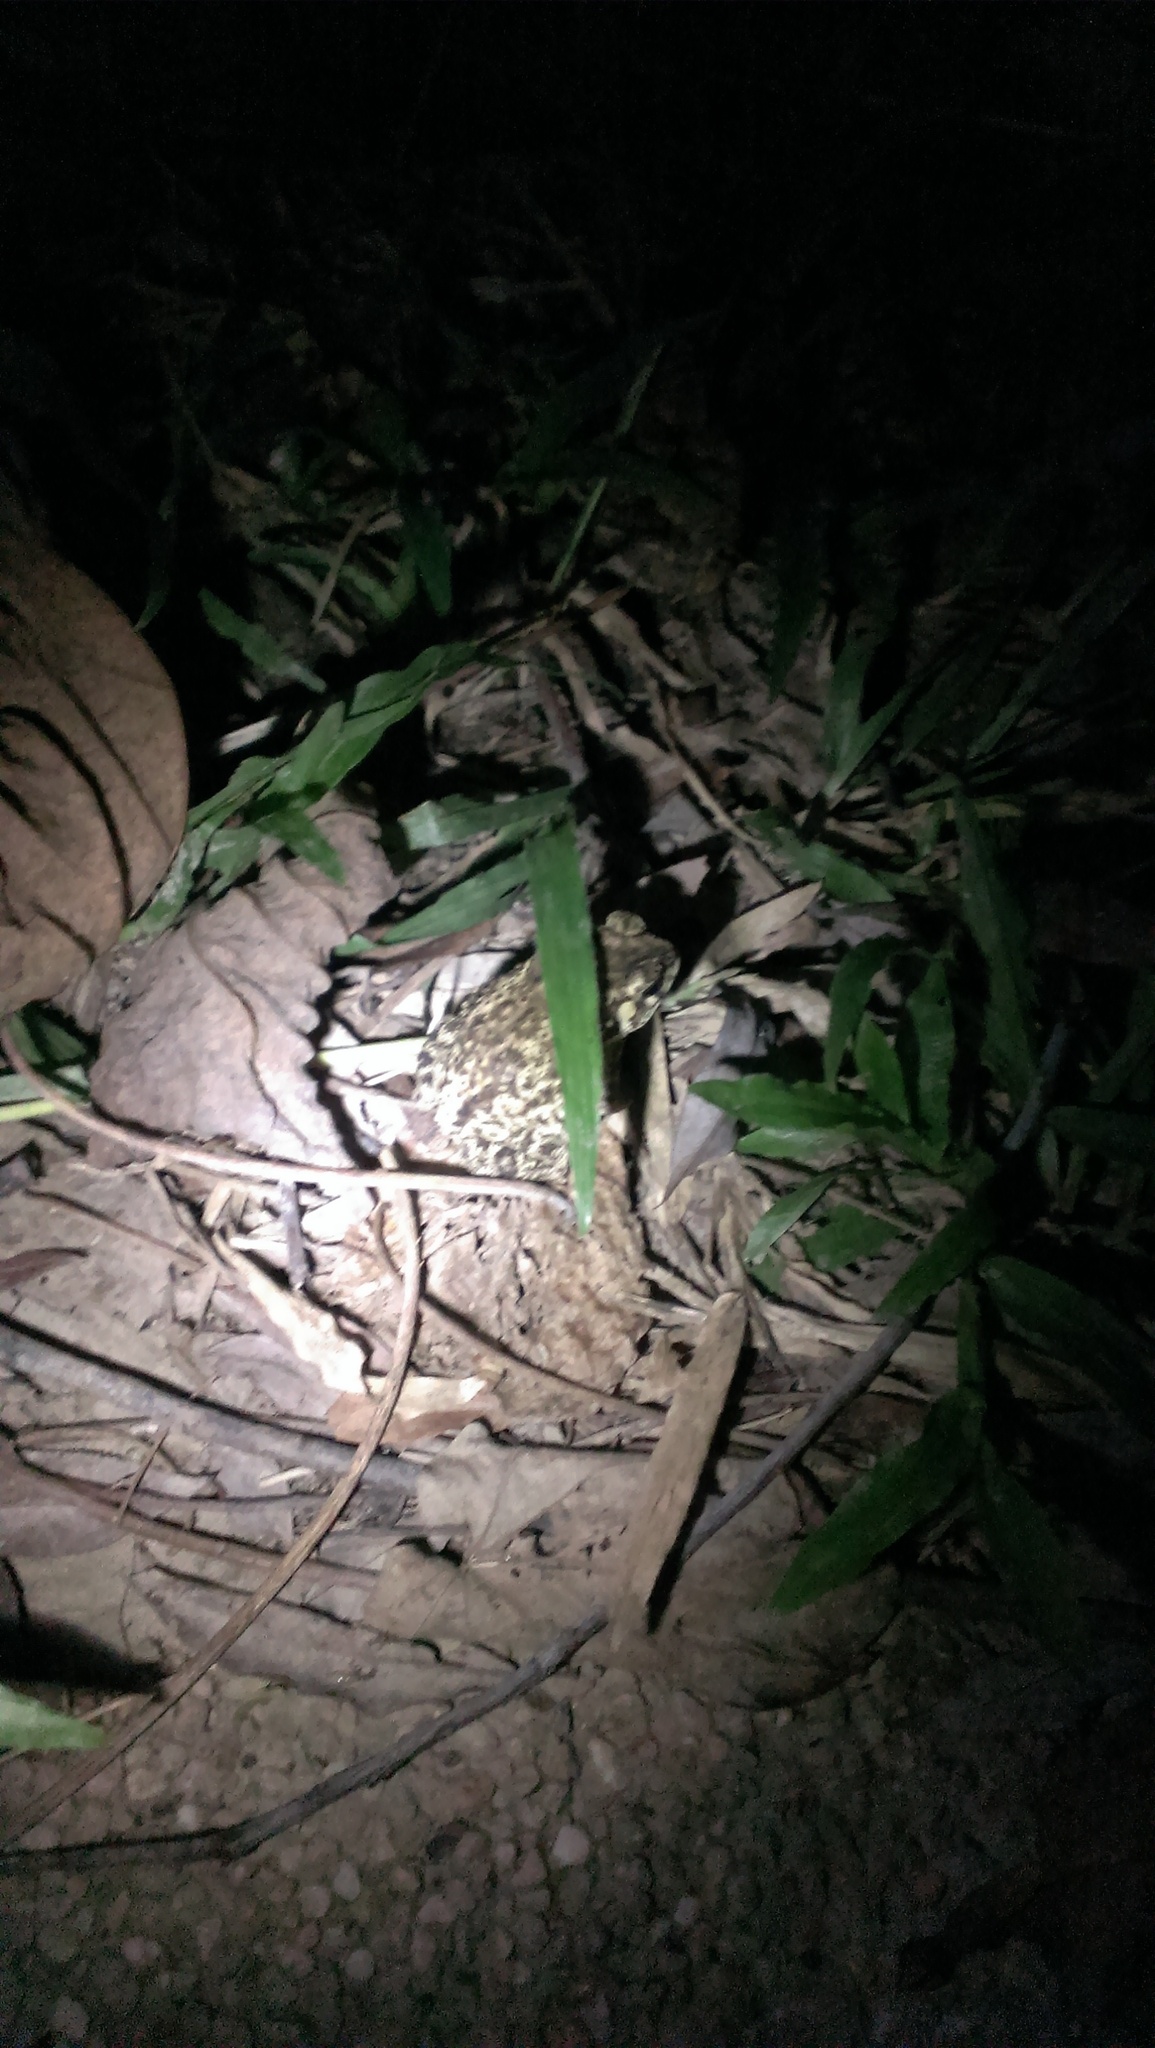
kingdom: Animalia
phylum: Chordata
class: Amphibia
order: Anura
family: Bufonidae
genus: Duttaphrynus
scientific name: Duttaphrynus melanostictus
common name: Common sunda toad
